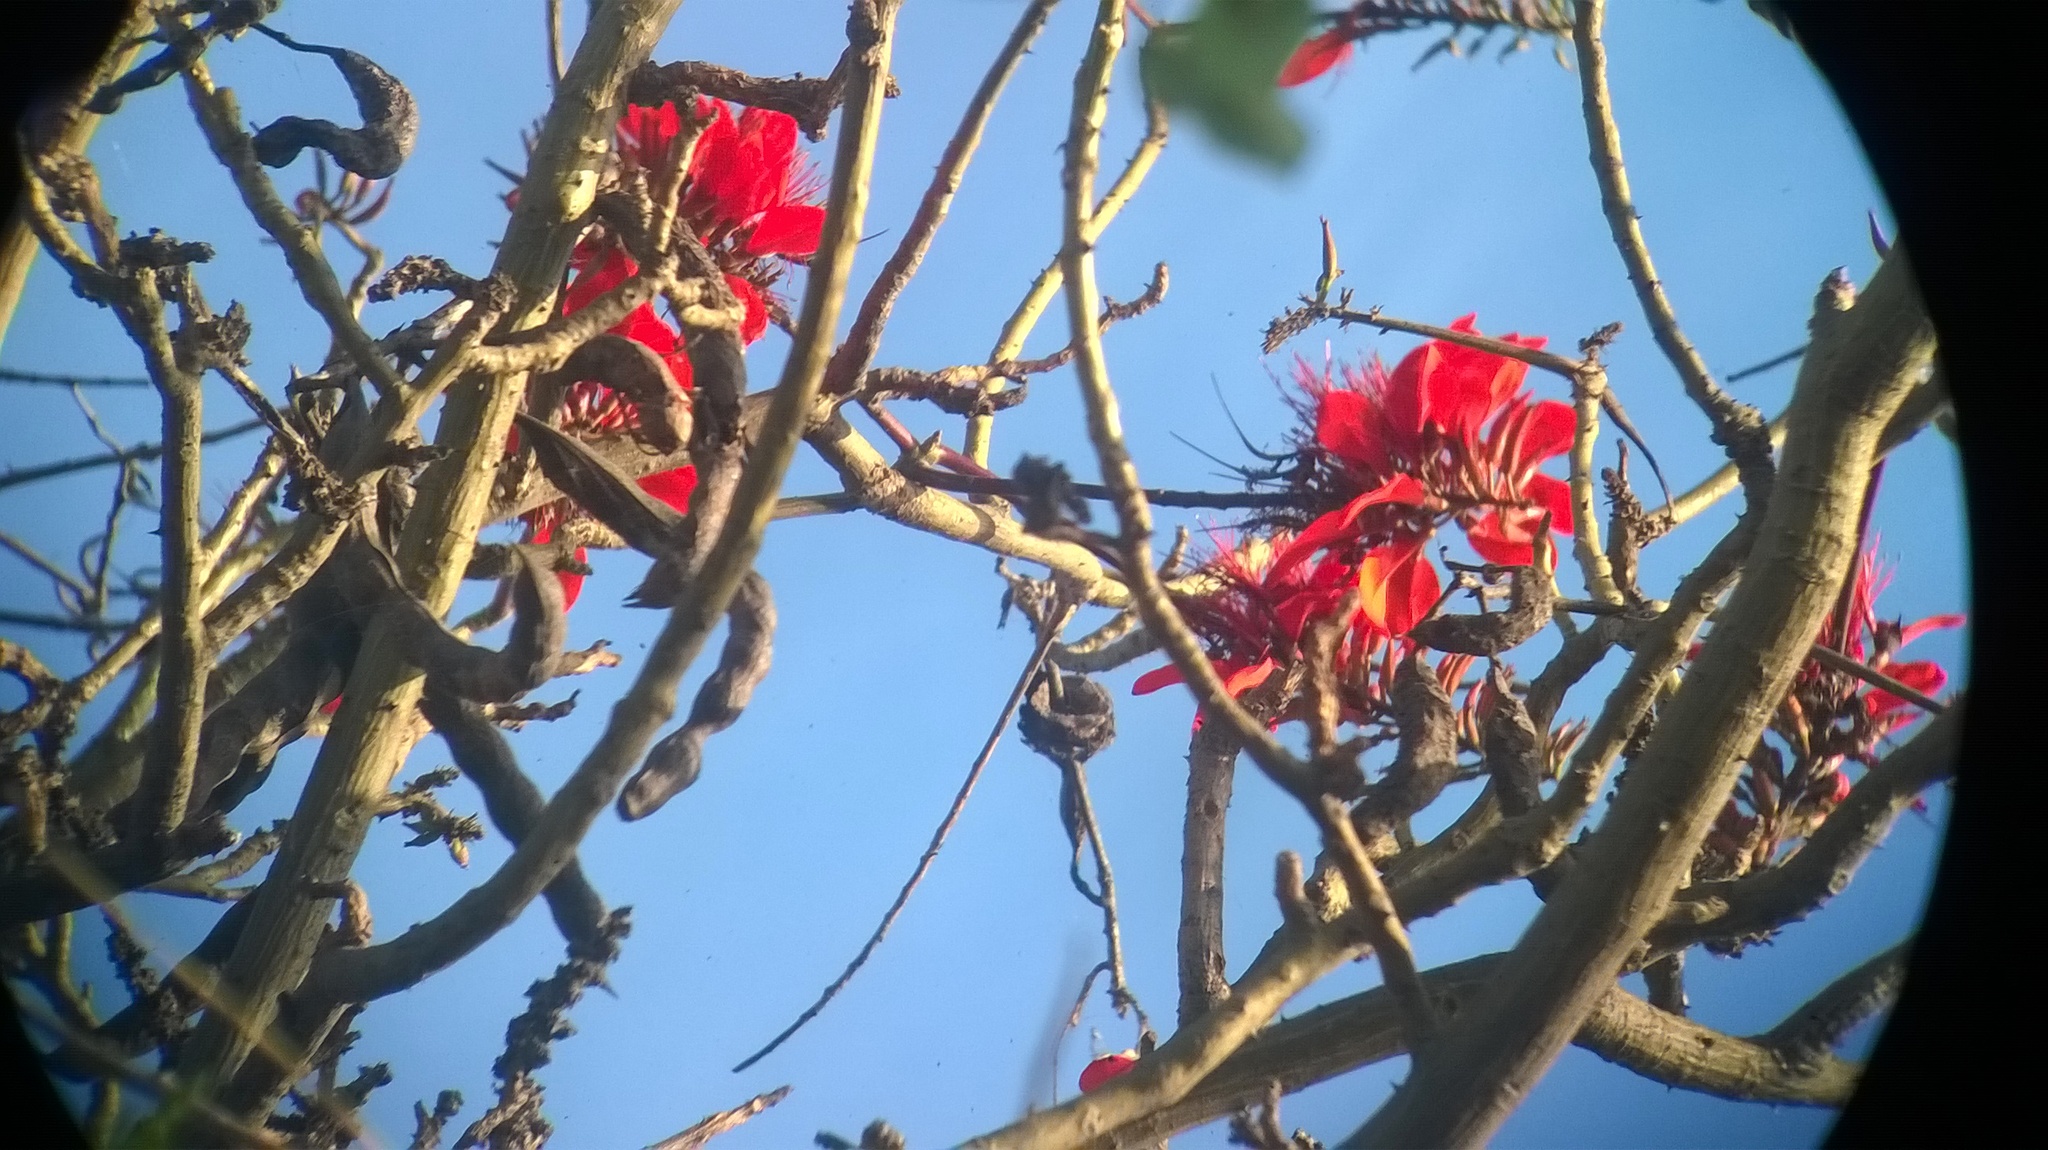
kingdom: Plantae
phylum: Tracheophyta
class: Magnoliopsida
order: Fabales
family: Fabaceae
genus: Erythrina
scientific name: Erythrina variegata
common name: Indian coral tree
